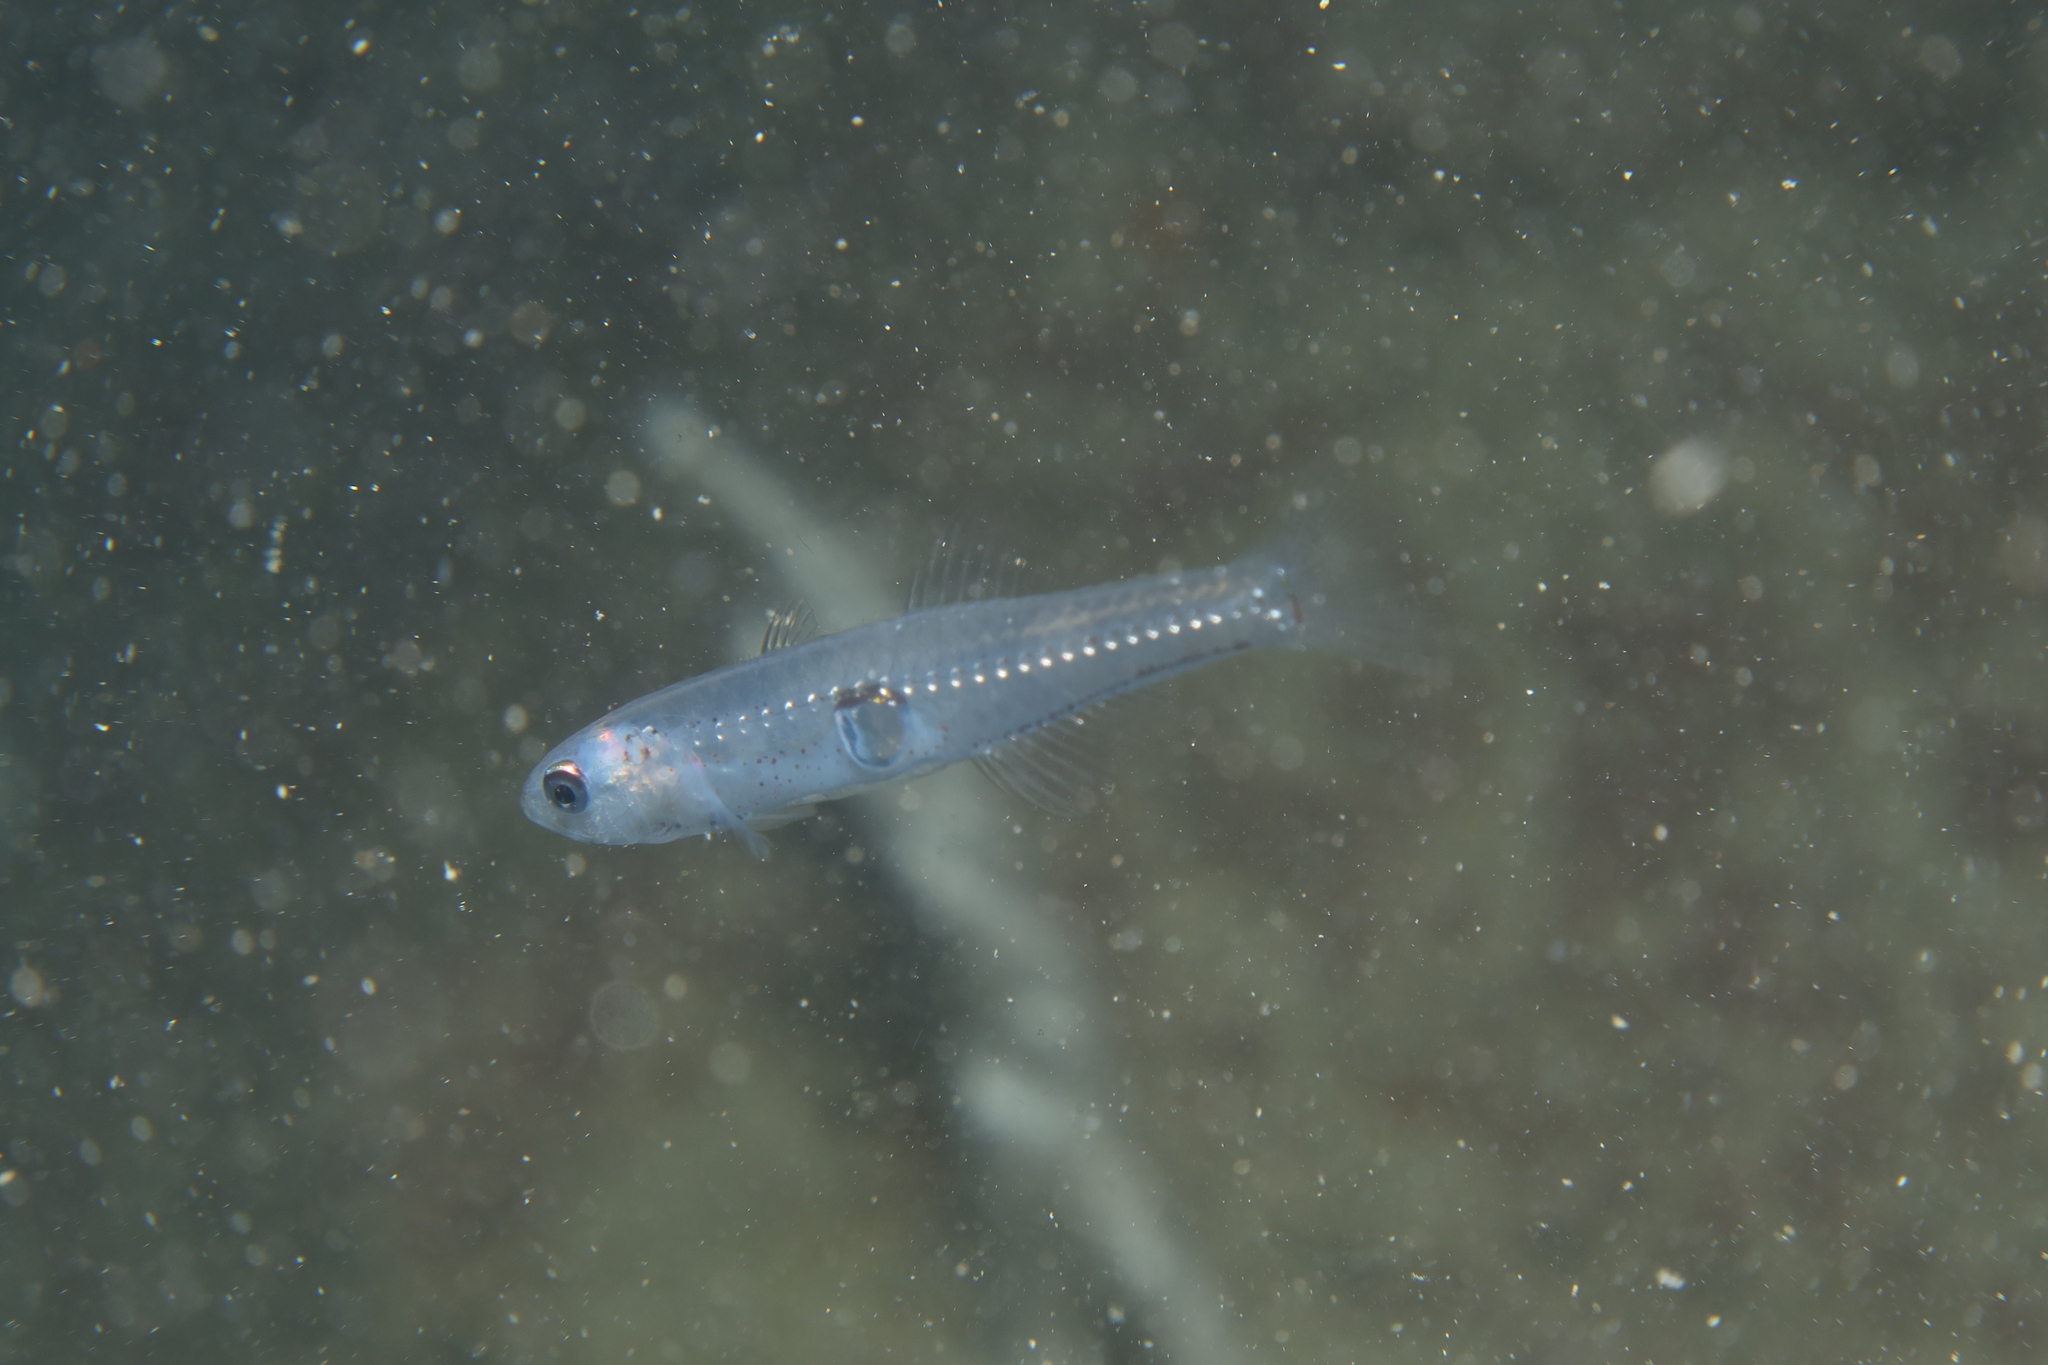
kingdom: Animalia
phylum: Chordata
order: Perciformes
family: Gobiidae
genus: Aphia
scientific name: Aphia minuta
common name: Transparent goby
